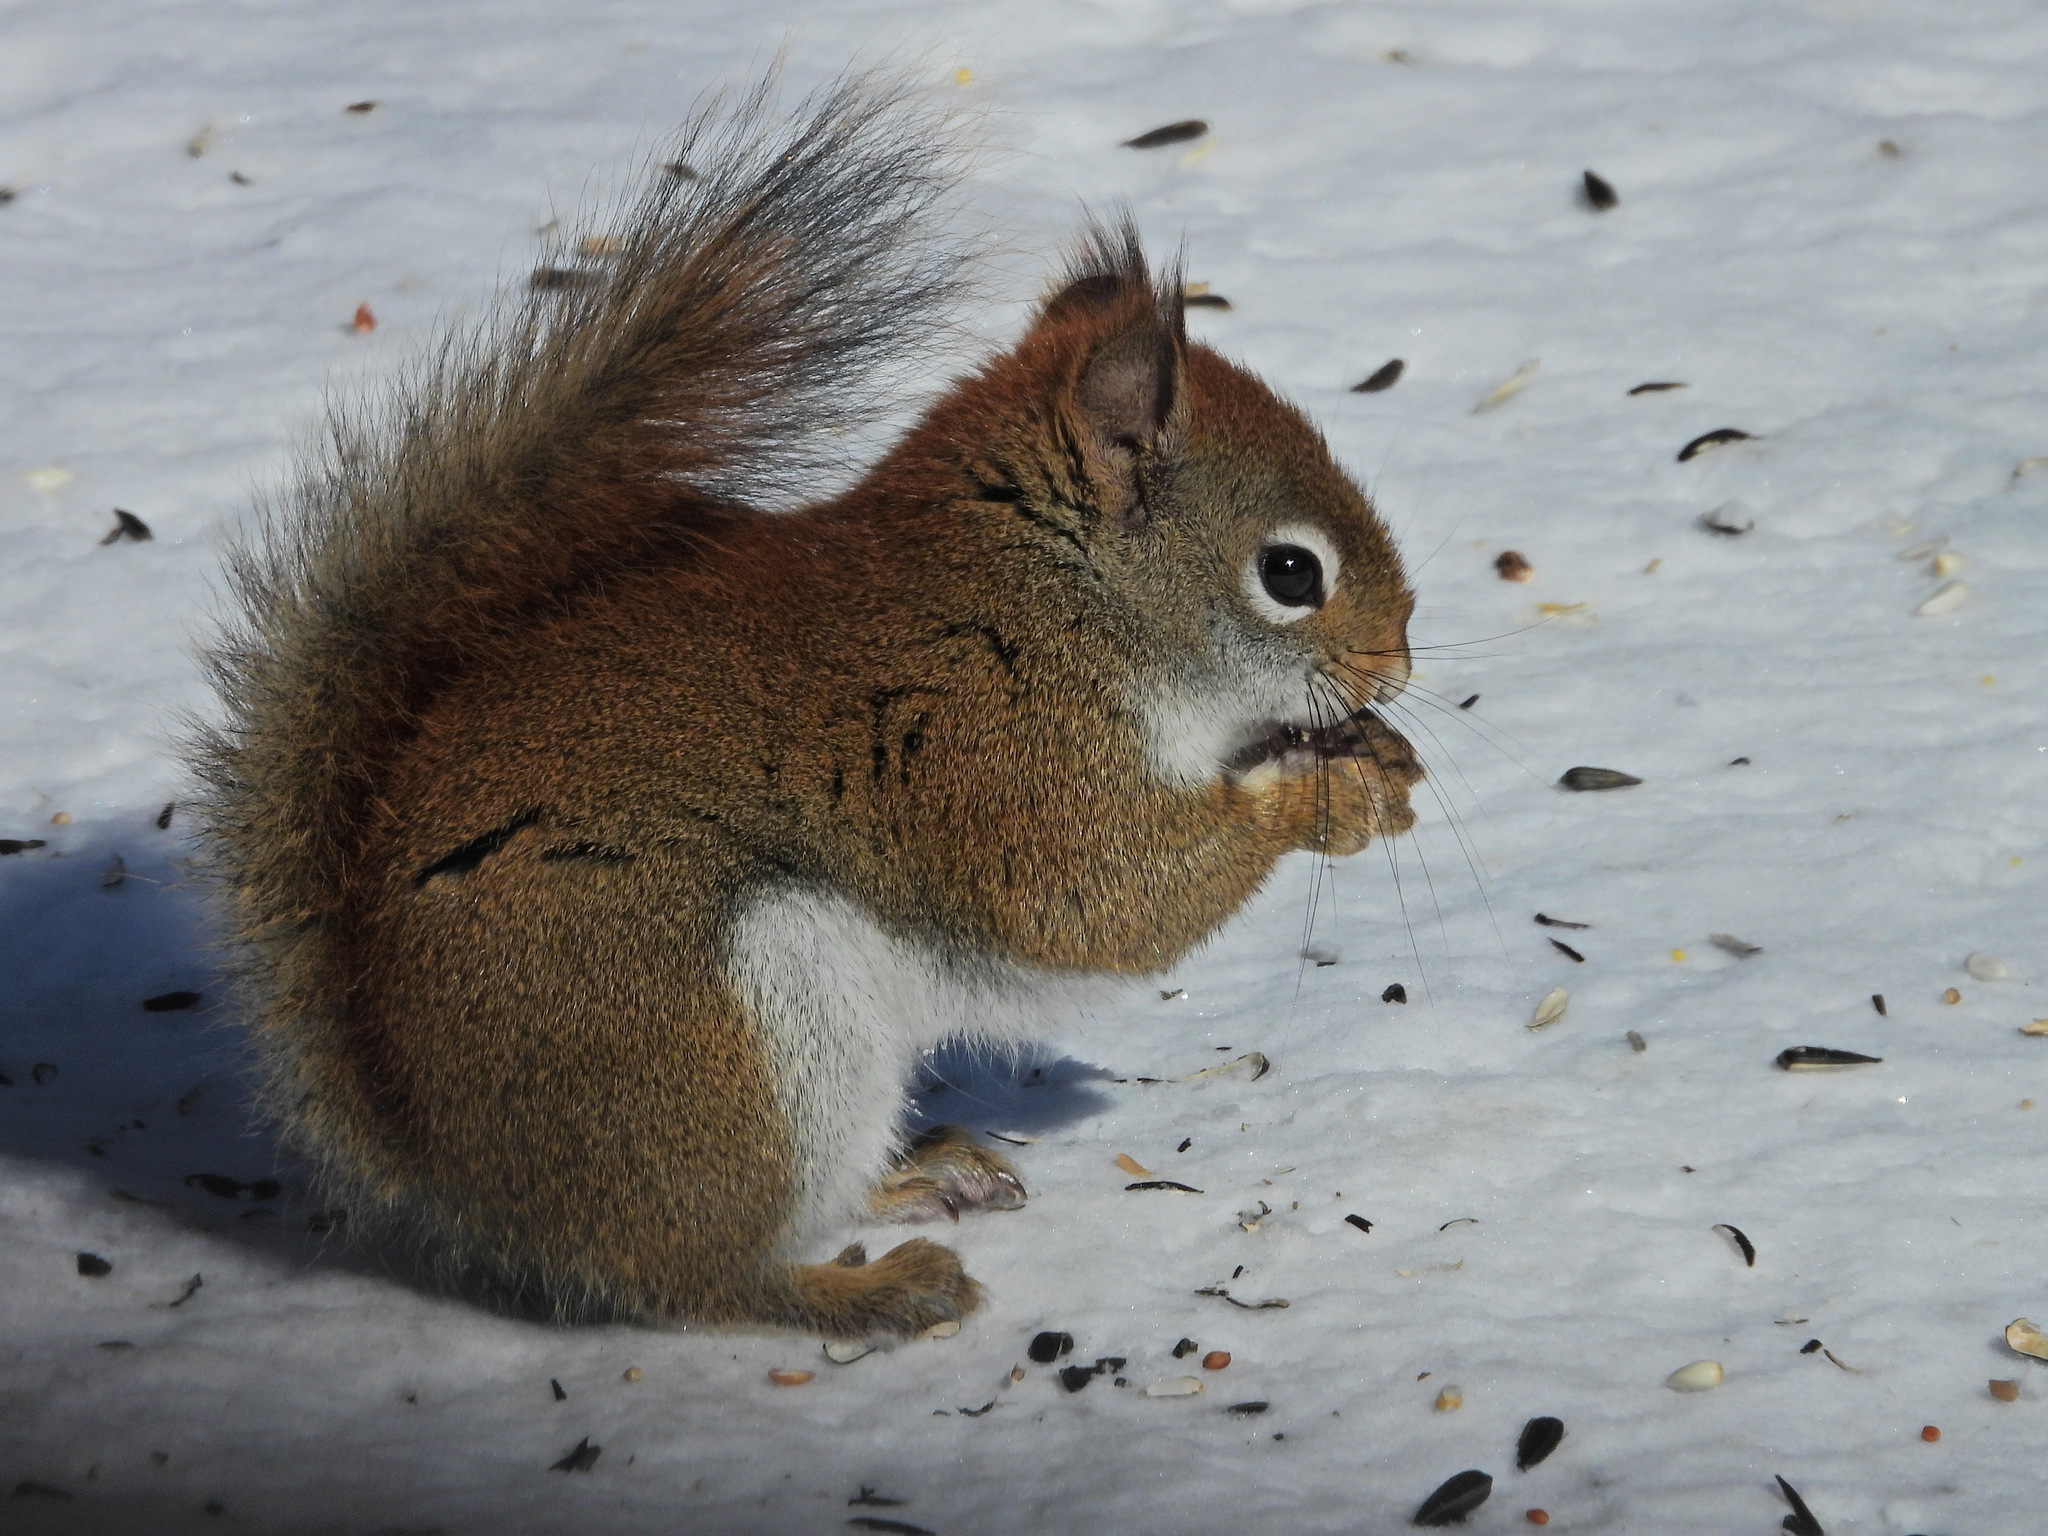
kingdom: Animalia
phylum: Chordata
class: Mammalia
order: Rodentia
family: Sciuridae
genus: Tamiasciurus
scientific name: Tamiasciurus hudsonicus
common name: Red squirrel
